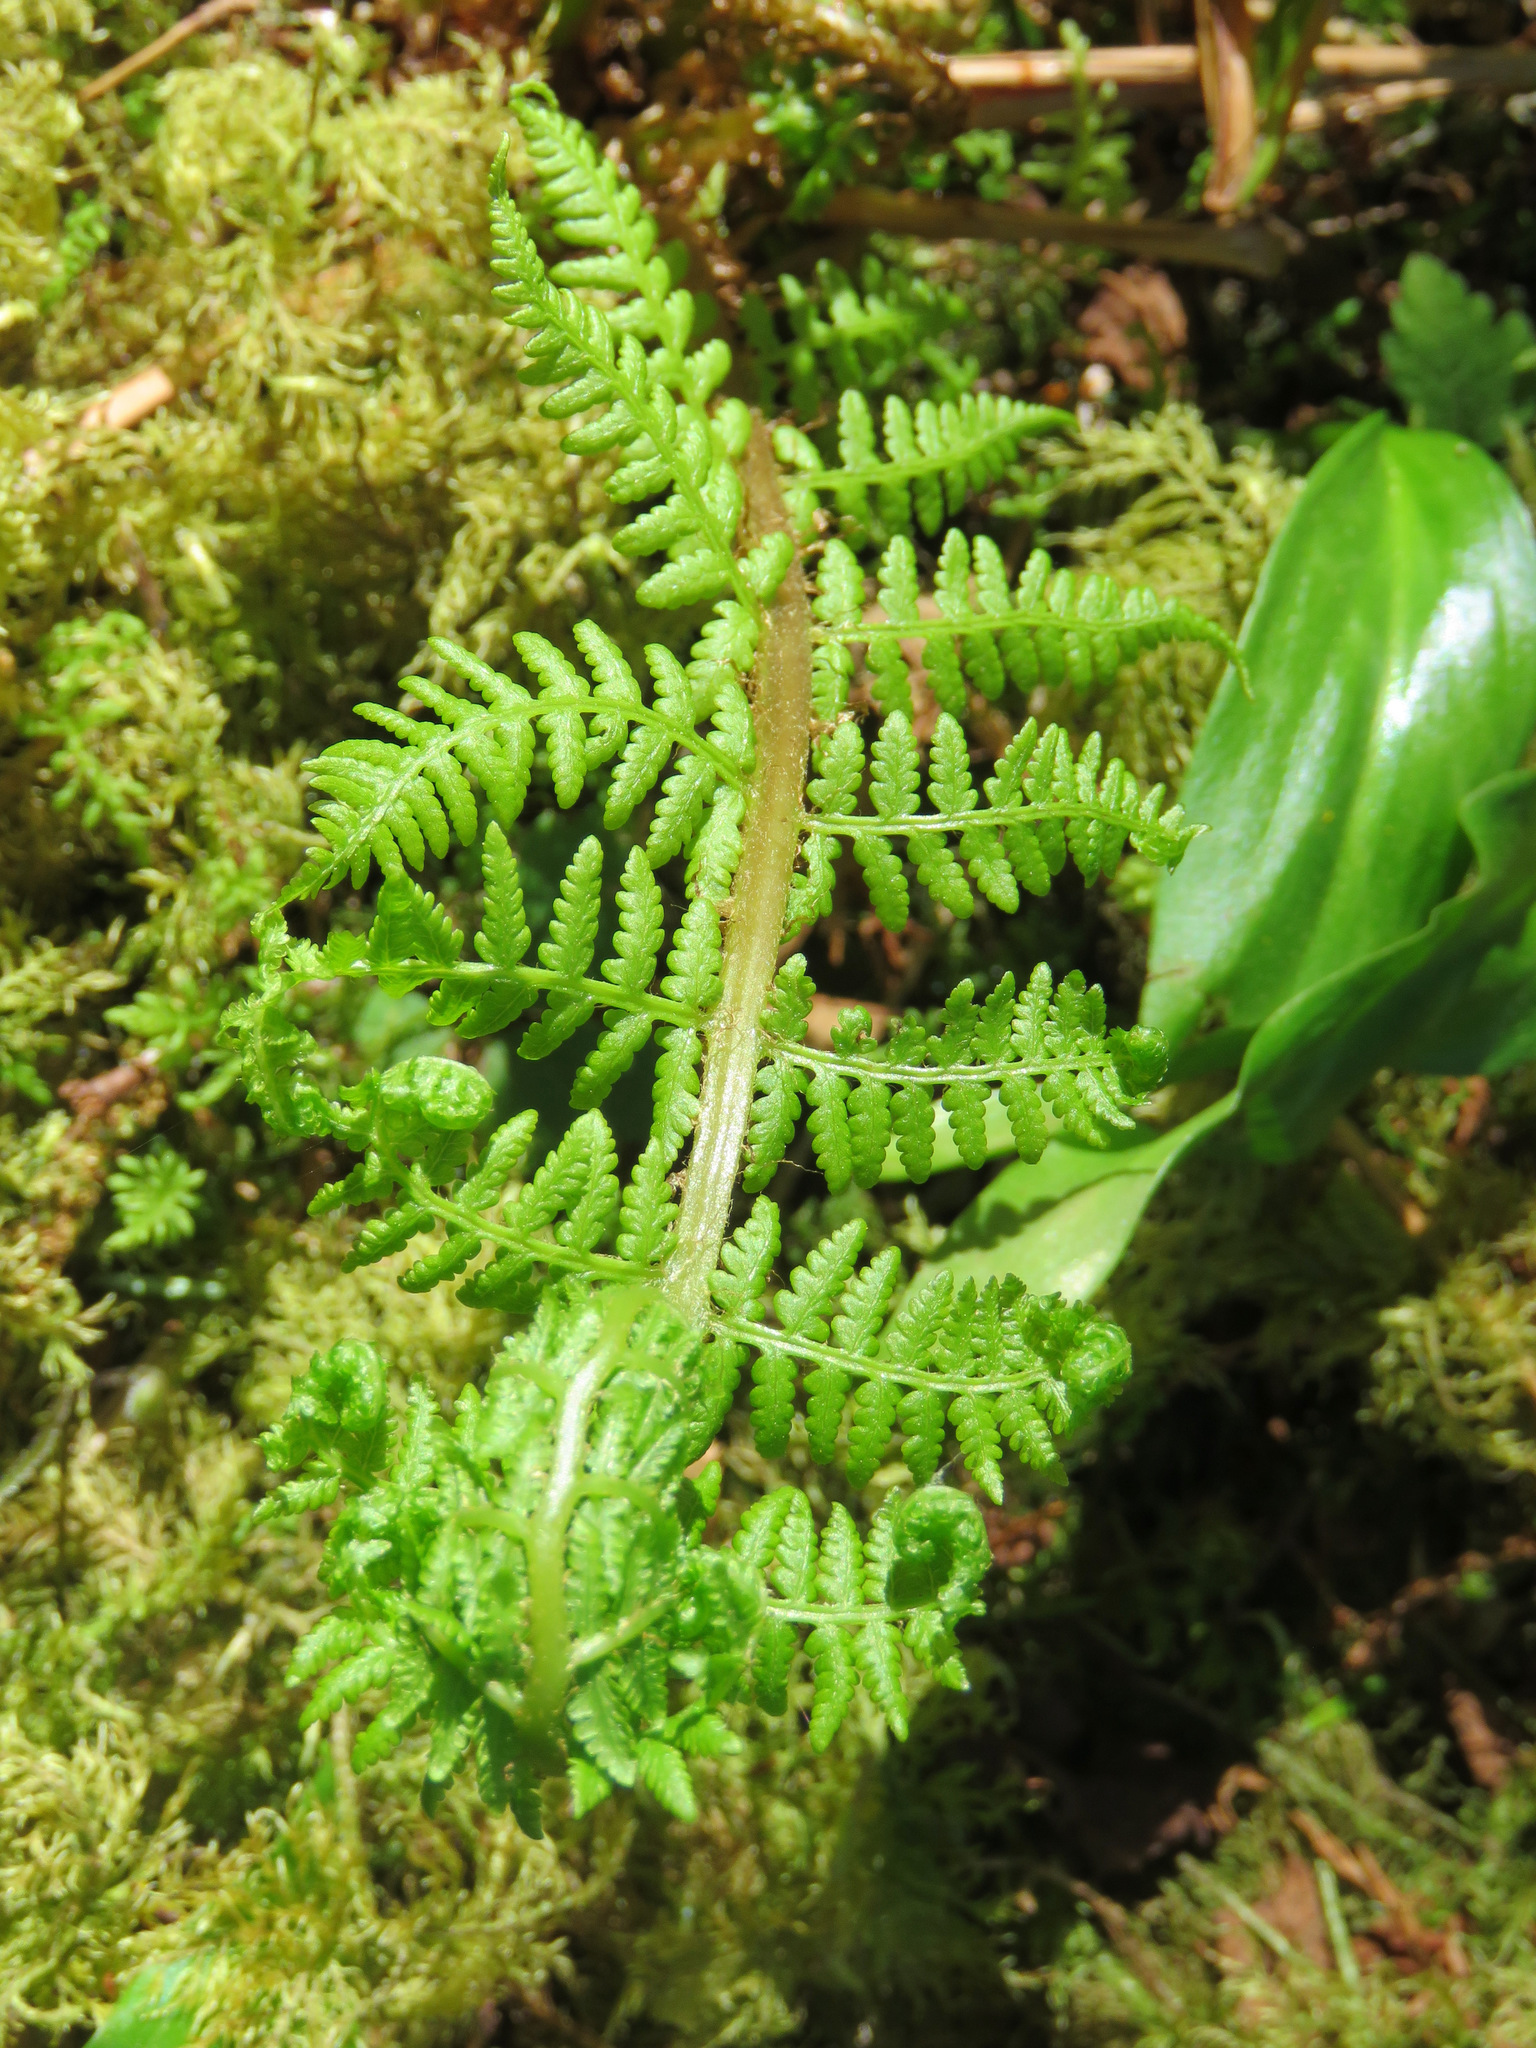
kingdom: Plantae
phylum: Tracheophyta
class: Polypodiopsida
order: Polypodiales
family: Athyriaceae
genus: Athyrium
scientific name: Athyrium filix-femina
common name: Lady fern
